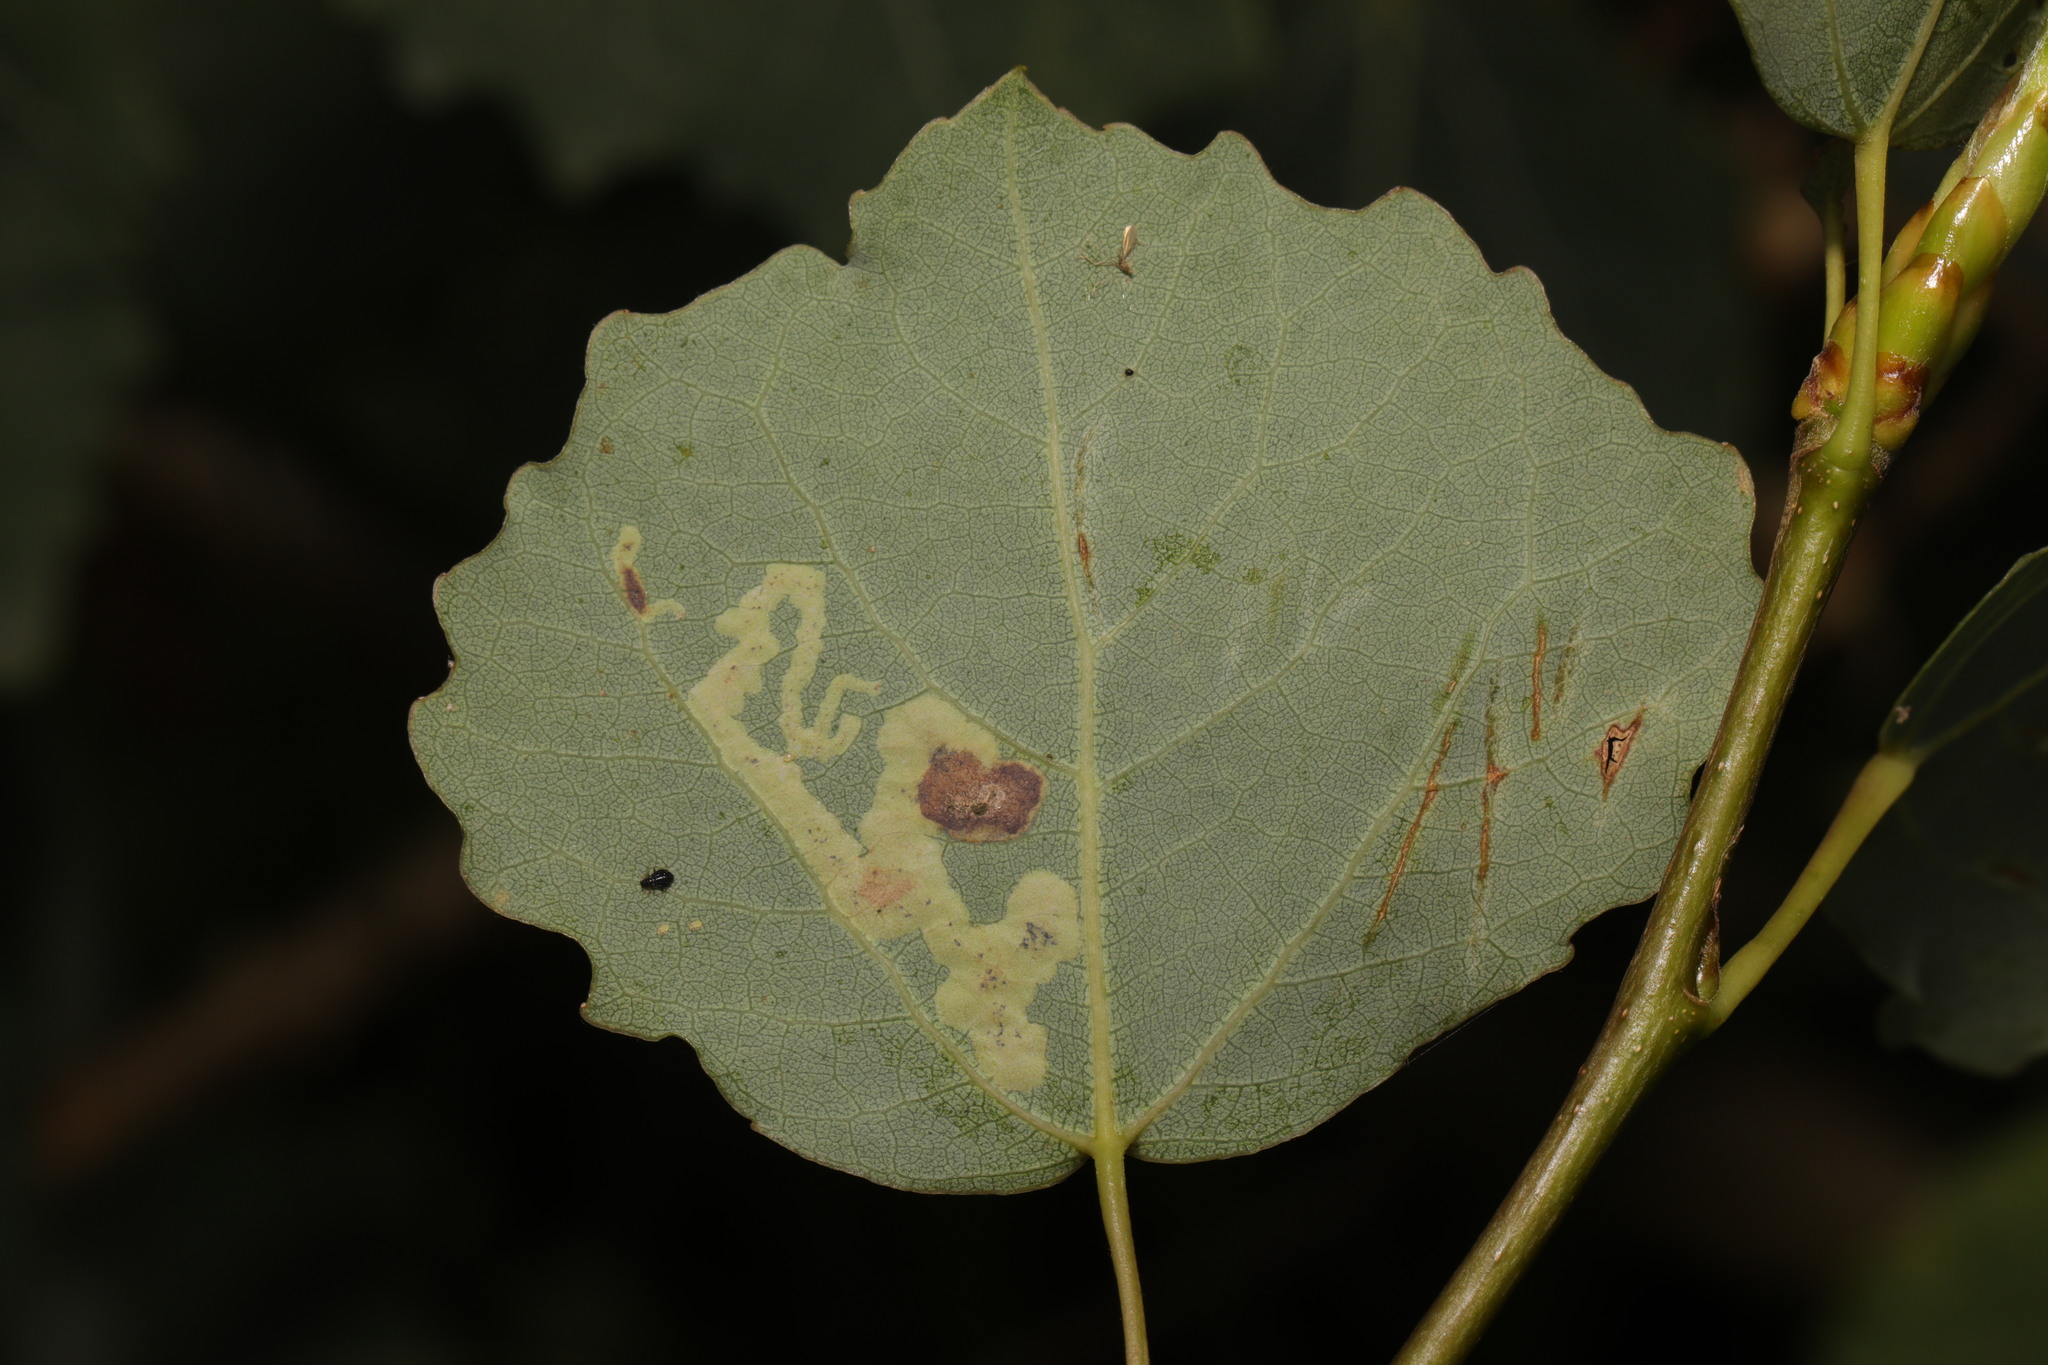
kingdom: Animalia
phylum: Arthropoda
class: Insecta
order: Diptera
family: Agromyzidae
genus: Aulagromyza
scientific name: Aulagromyza tremulae
